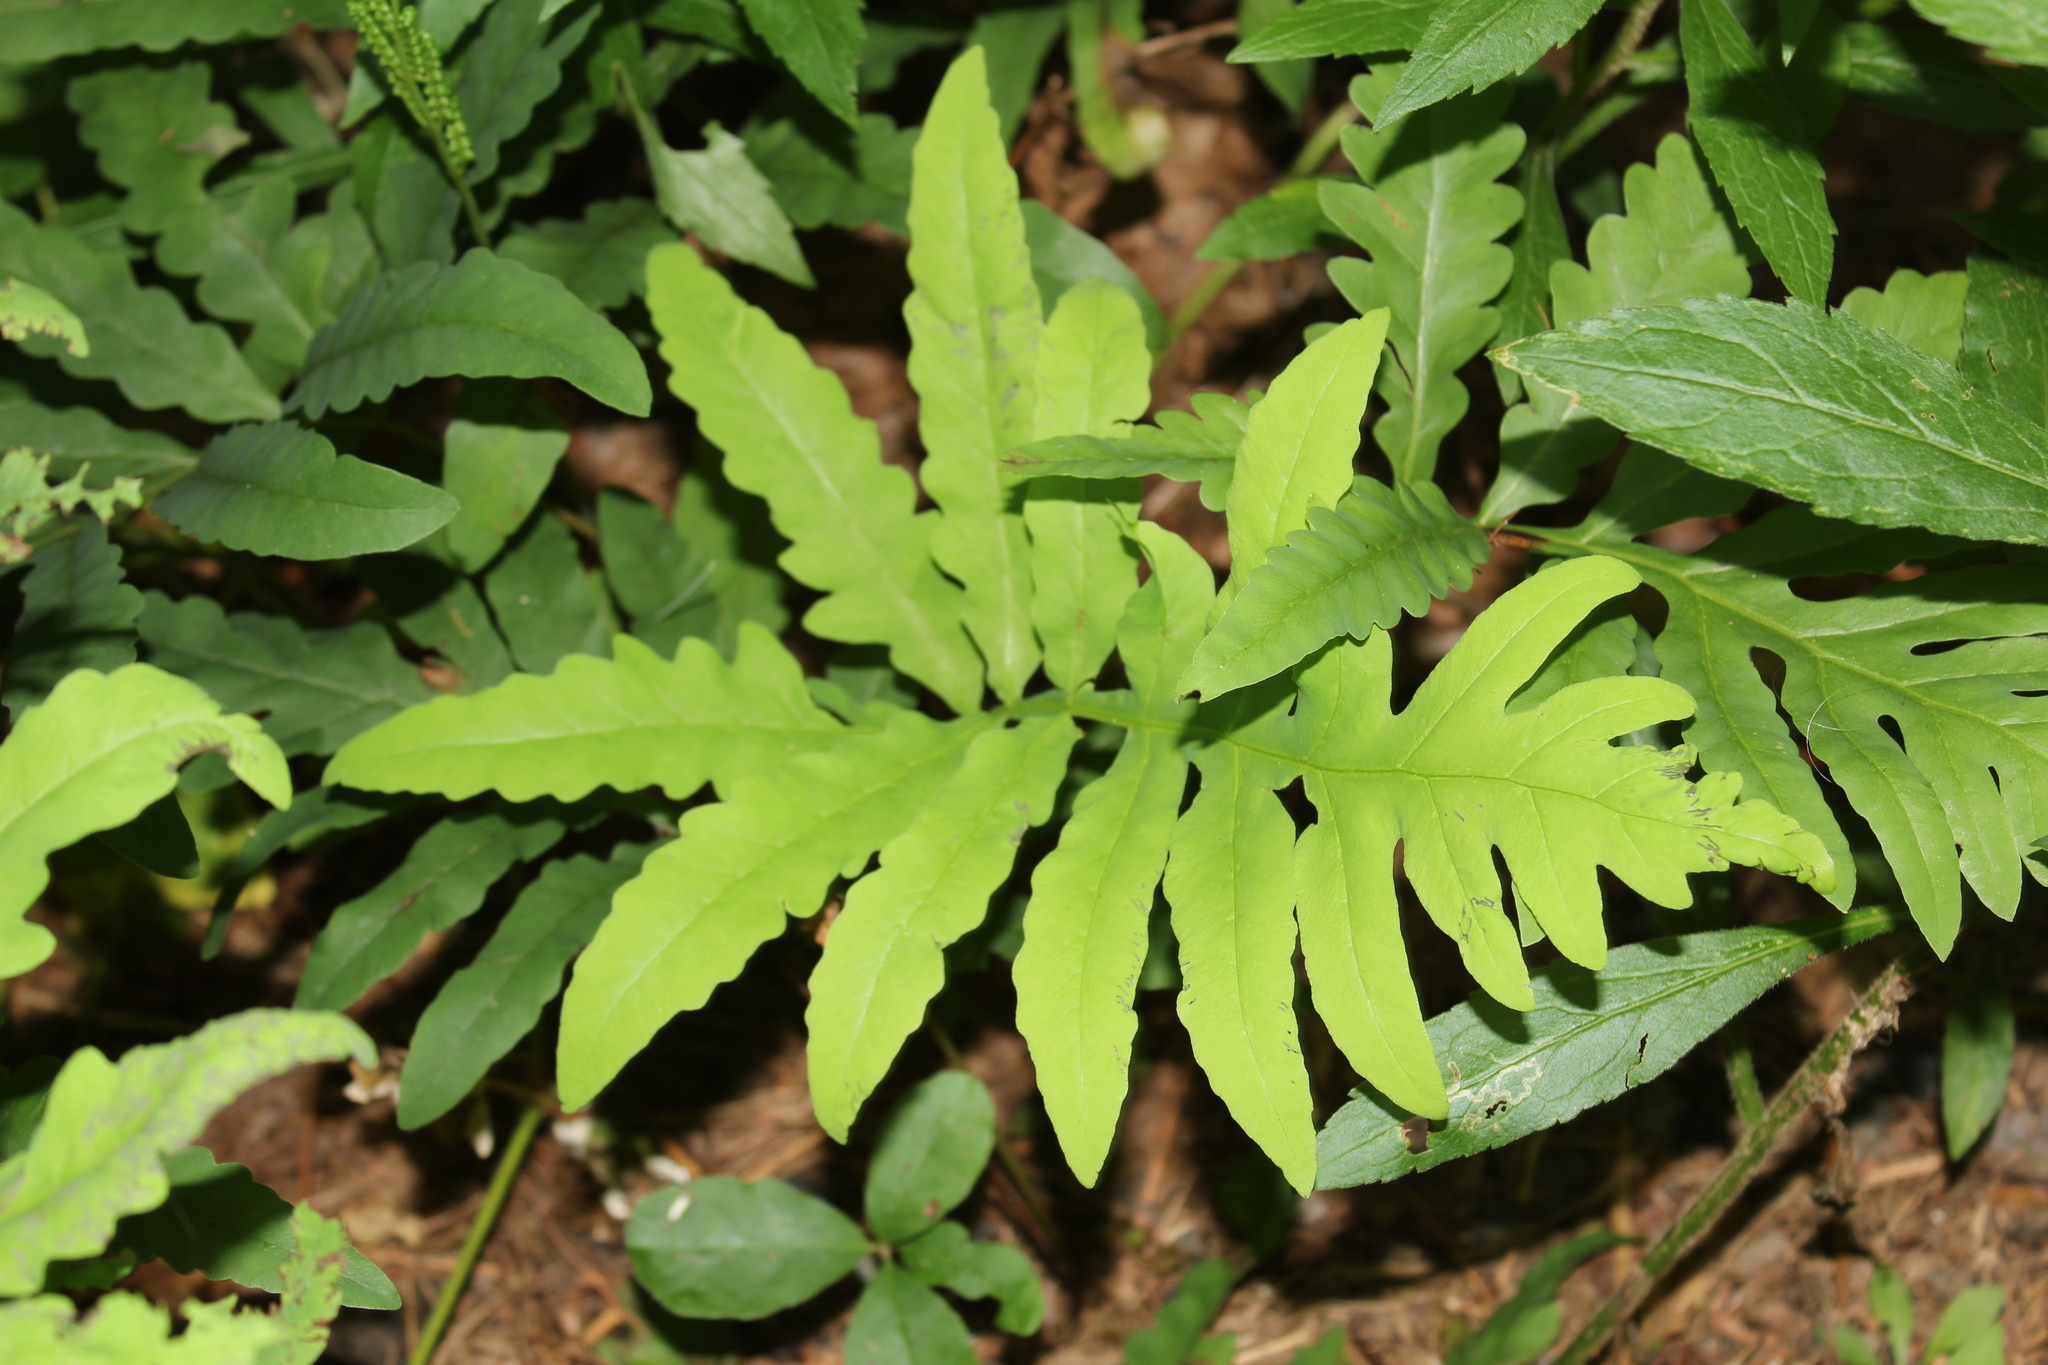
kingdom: Plantae
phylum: Tracheophyta
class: Polypodiopsida
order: Polypodiales
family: Onocleaceae
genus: Onoclea
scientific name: Onoclea sensibilis
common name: Sensitive fern
